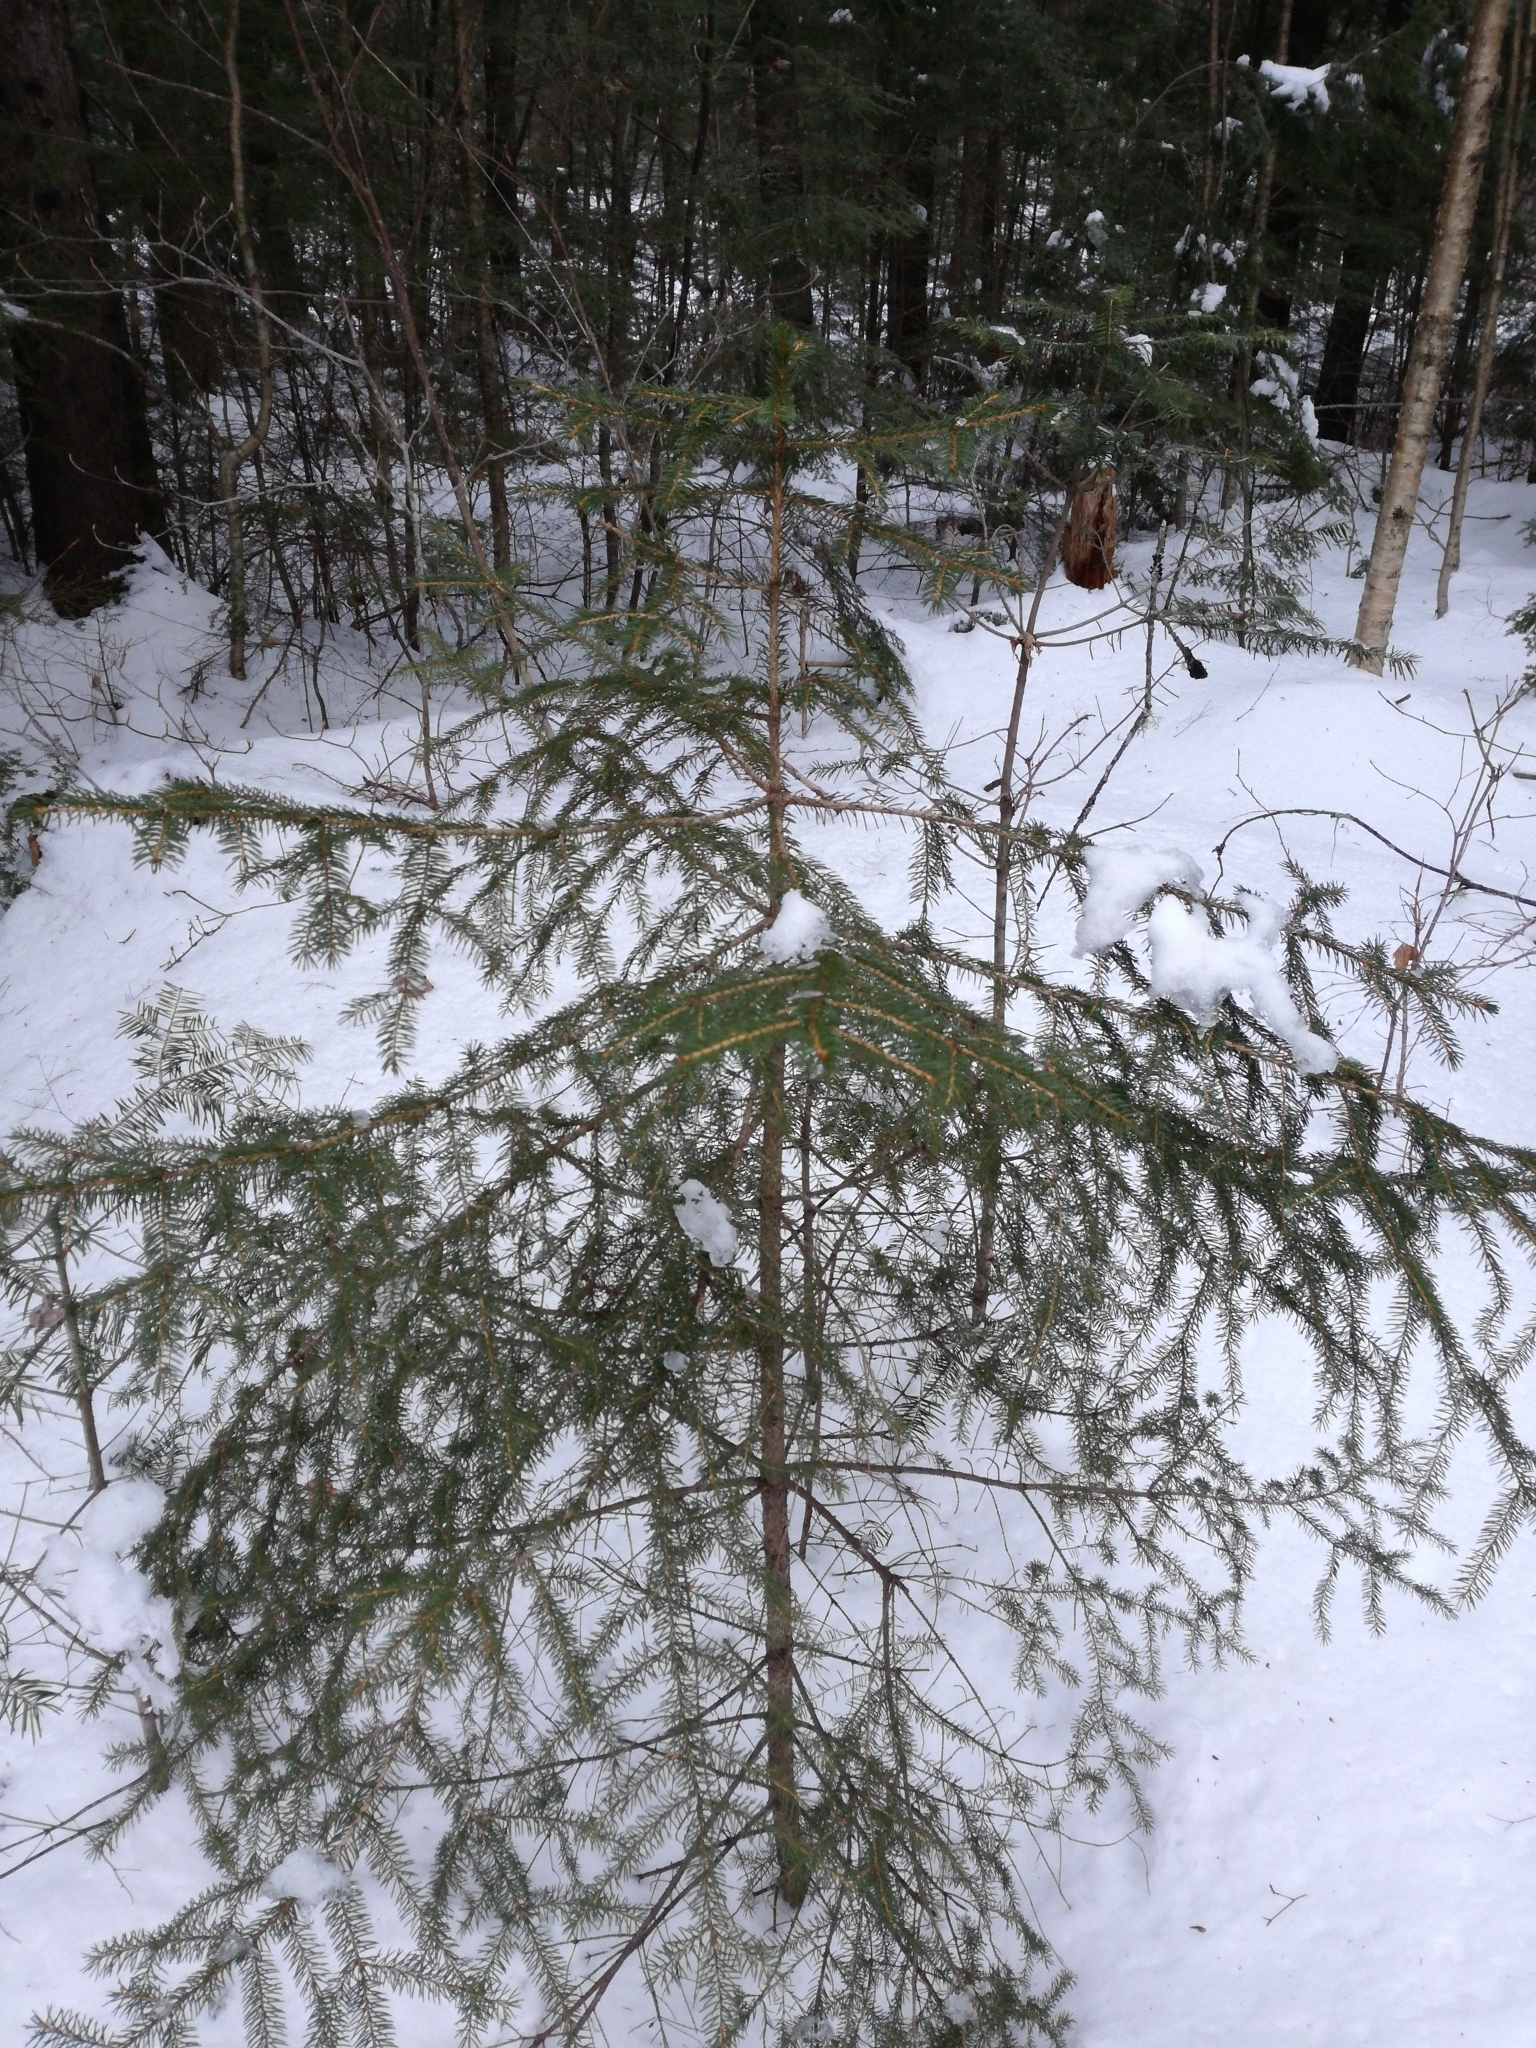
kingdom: Plantae
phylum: Tracheophyta
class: Pinopsida
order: Pinales
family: Pinaceae
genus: Picea
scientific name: Picea rubens
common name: Red spruce
